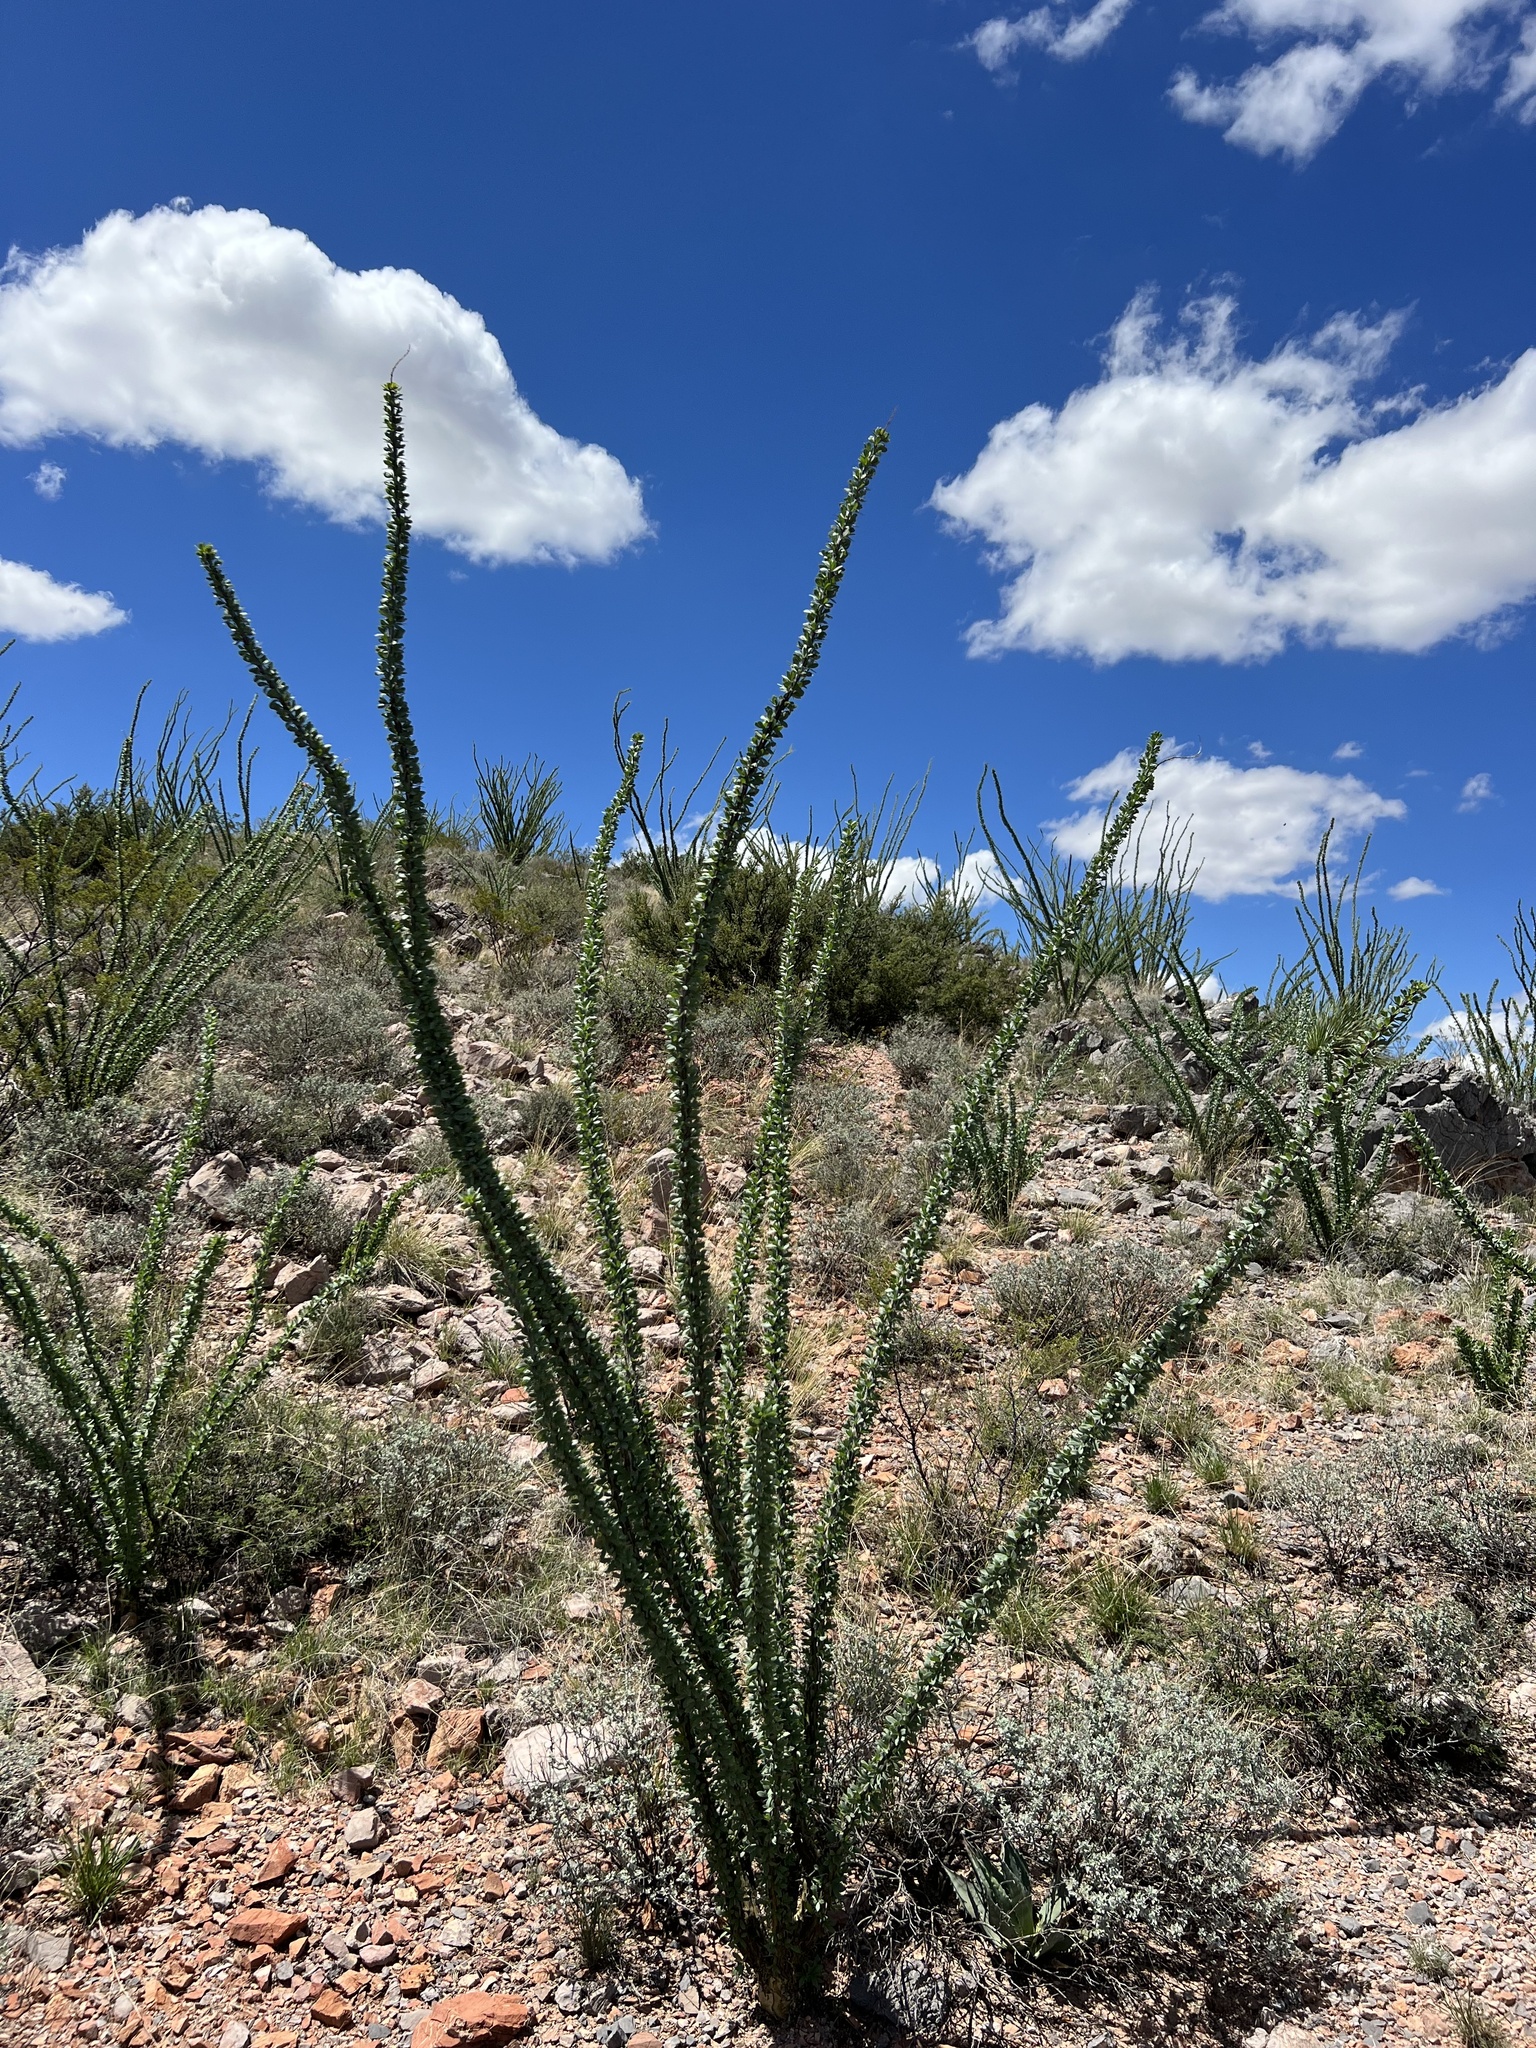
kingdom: Plantae
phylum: Tracheophyta
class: Magnoliopsida
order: Ericales
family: Fouquieriaceae
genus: Fouquieria
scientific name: Fouquieria splendens
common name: Vine-cactus
